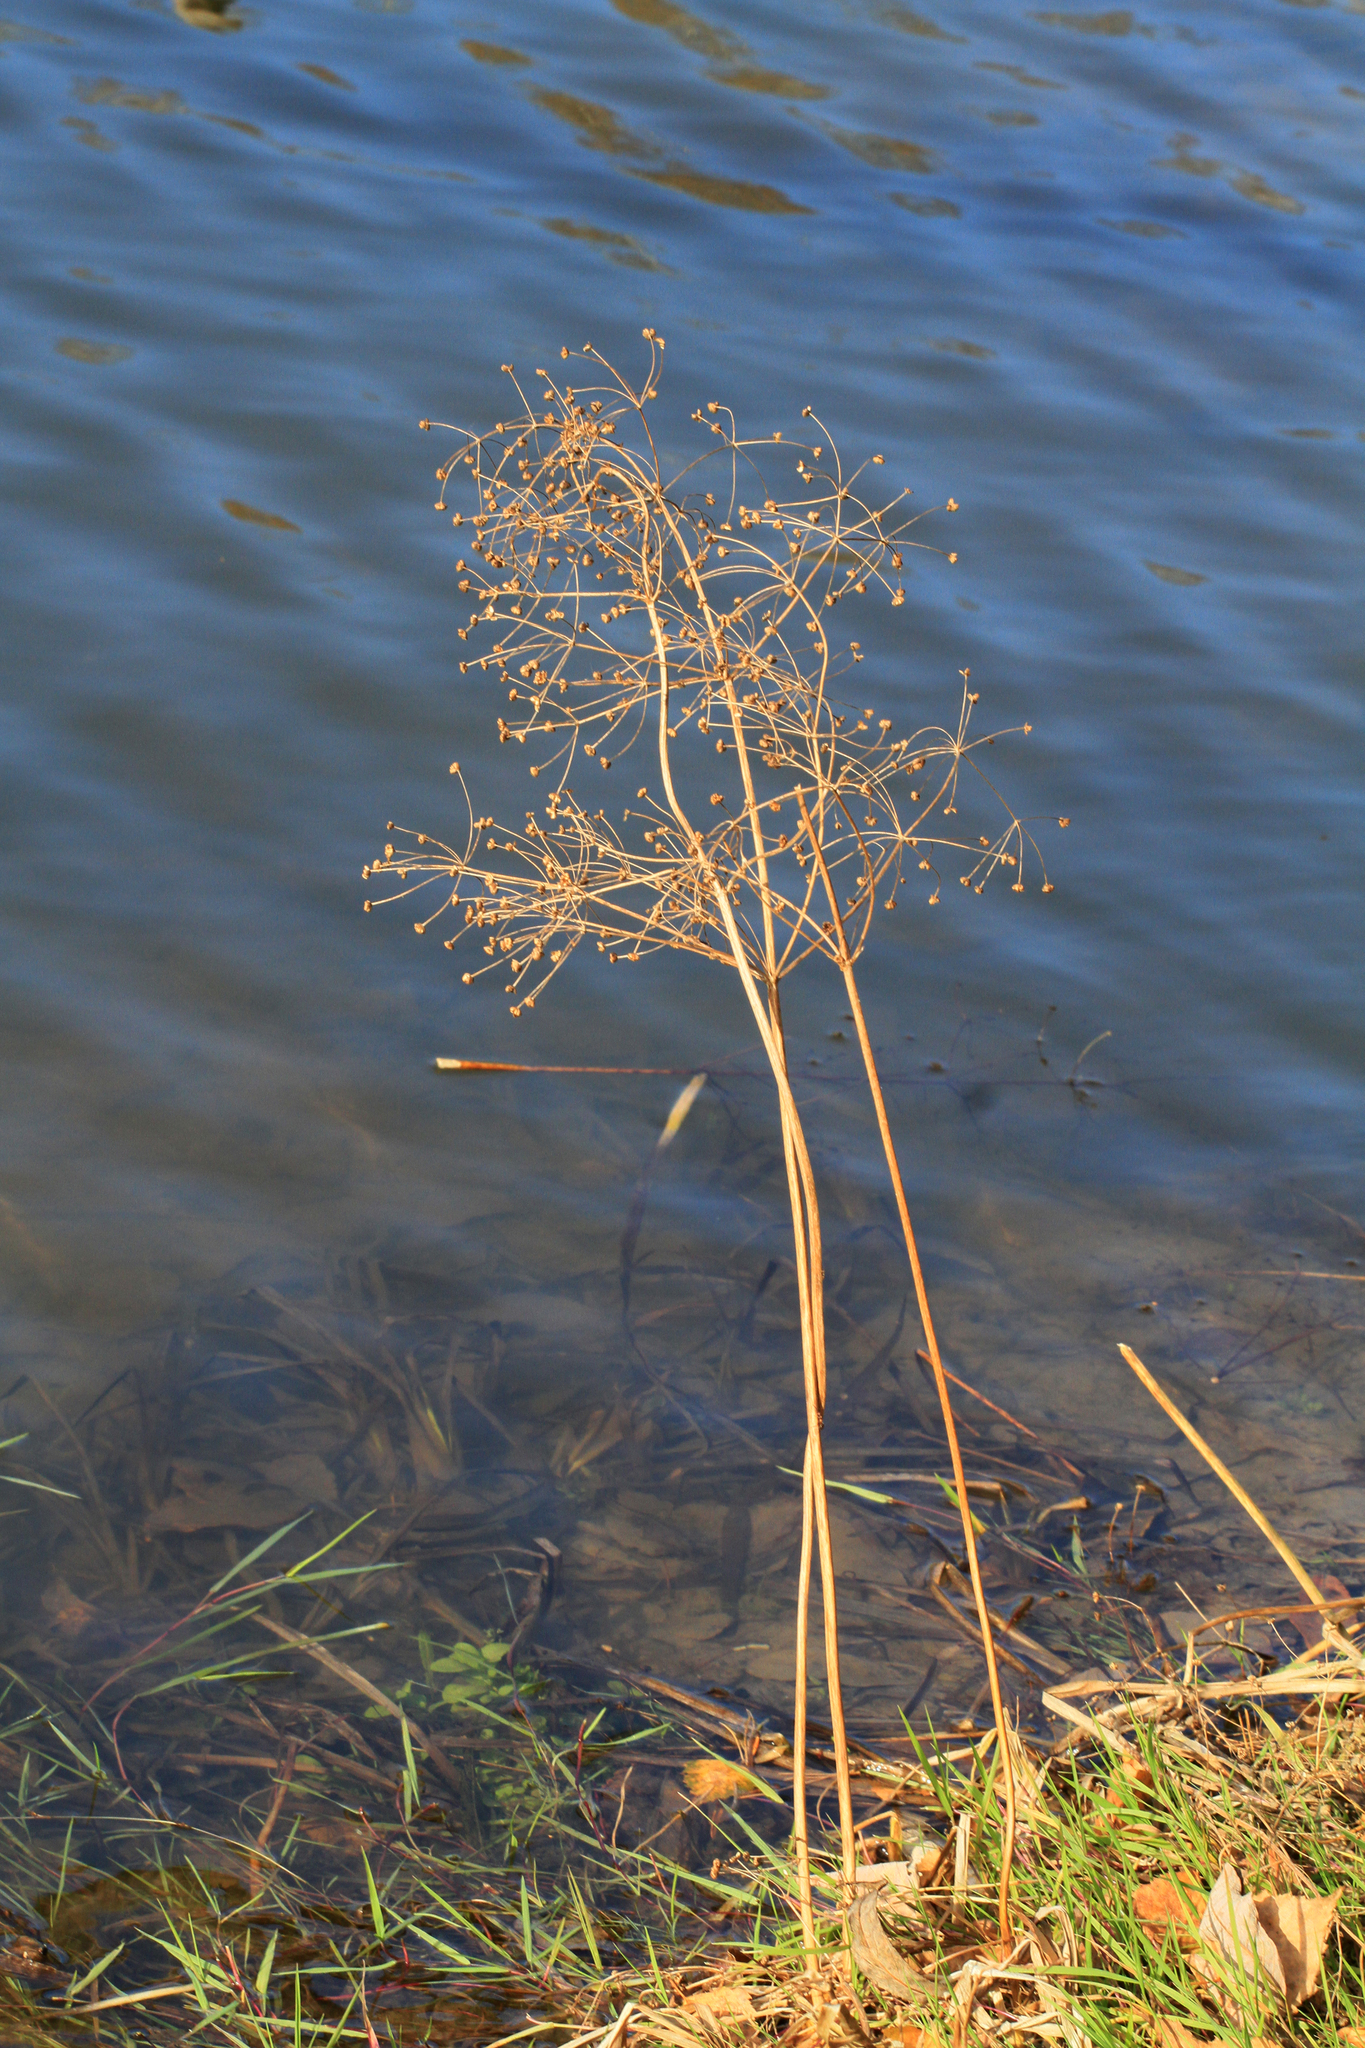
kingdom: Plantae
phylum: Tracheophyta
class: Liliopsida
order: Alismatales
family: Alismataceae
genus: Alisma
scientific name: Alisma plantago-aquatica
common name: Water-plantain
